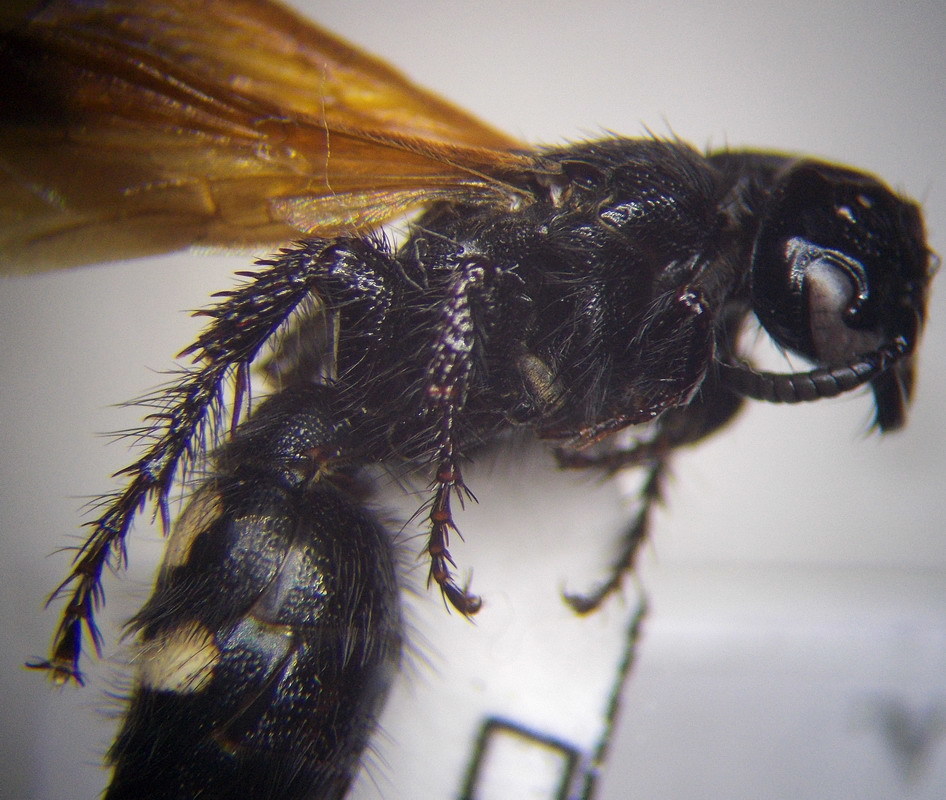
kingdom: Animalia
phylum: Arthropoda
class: Insecta
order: Hymenoptera
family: Vespidae
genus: Vespa
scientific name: Vespa sexmaculata
